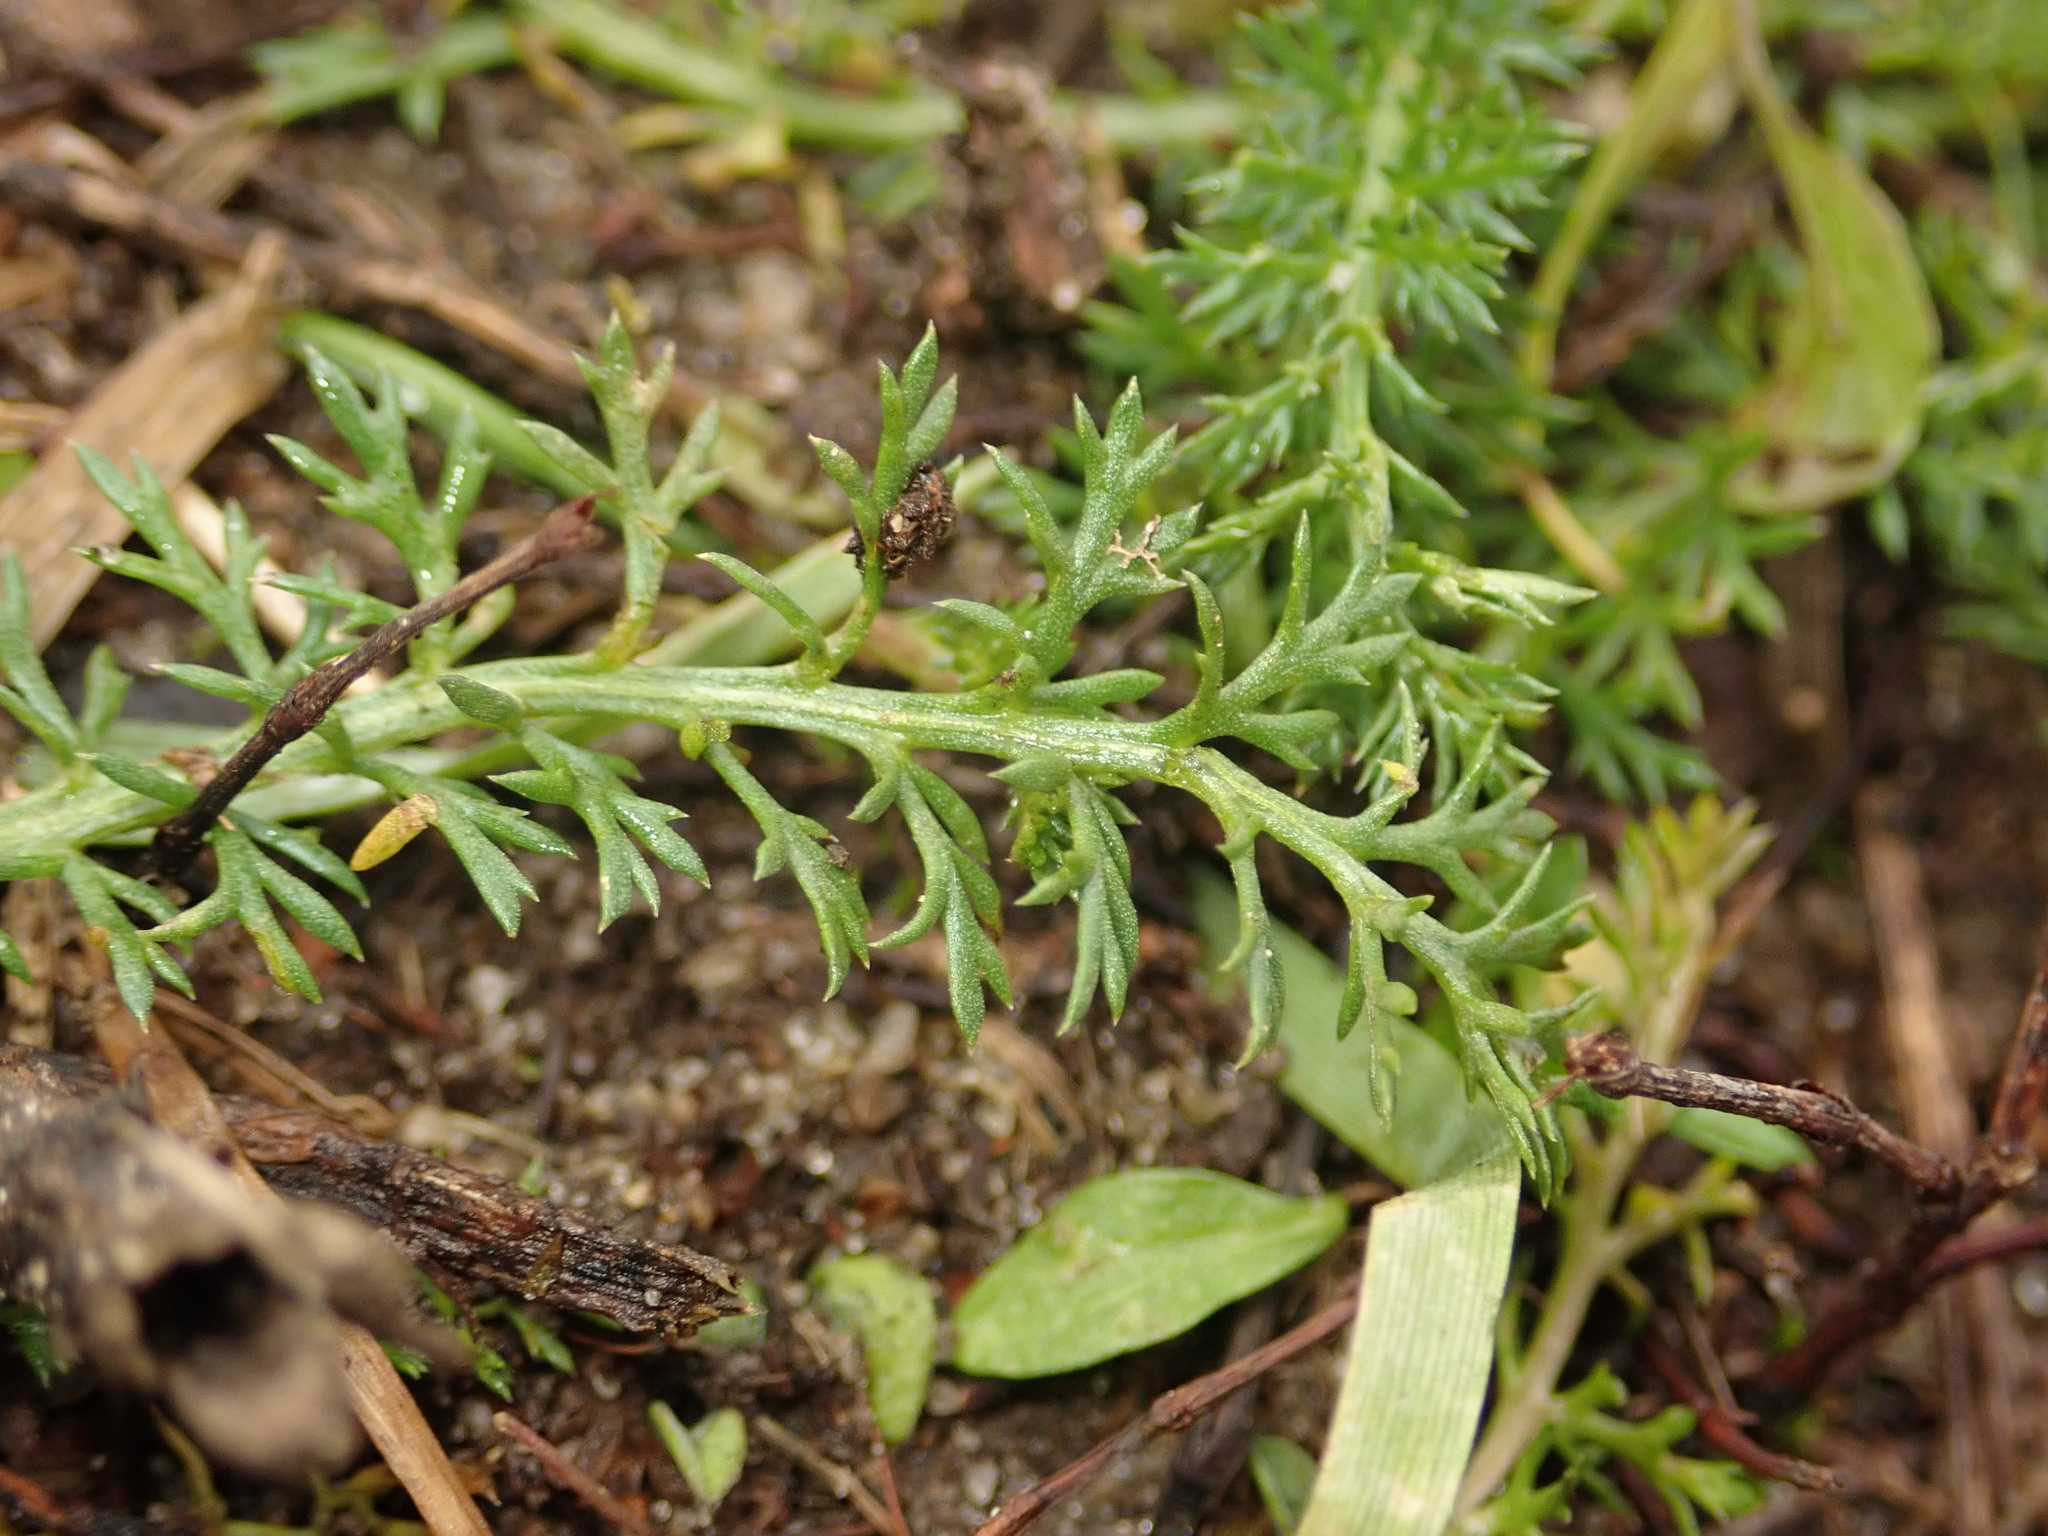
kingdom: Plantae
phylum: Tracheophyta
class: Magnoliopsida
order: Asterales
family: Asteraceae
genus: Achillea
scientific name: Achillea millefolium
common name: Yarrow
